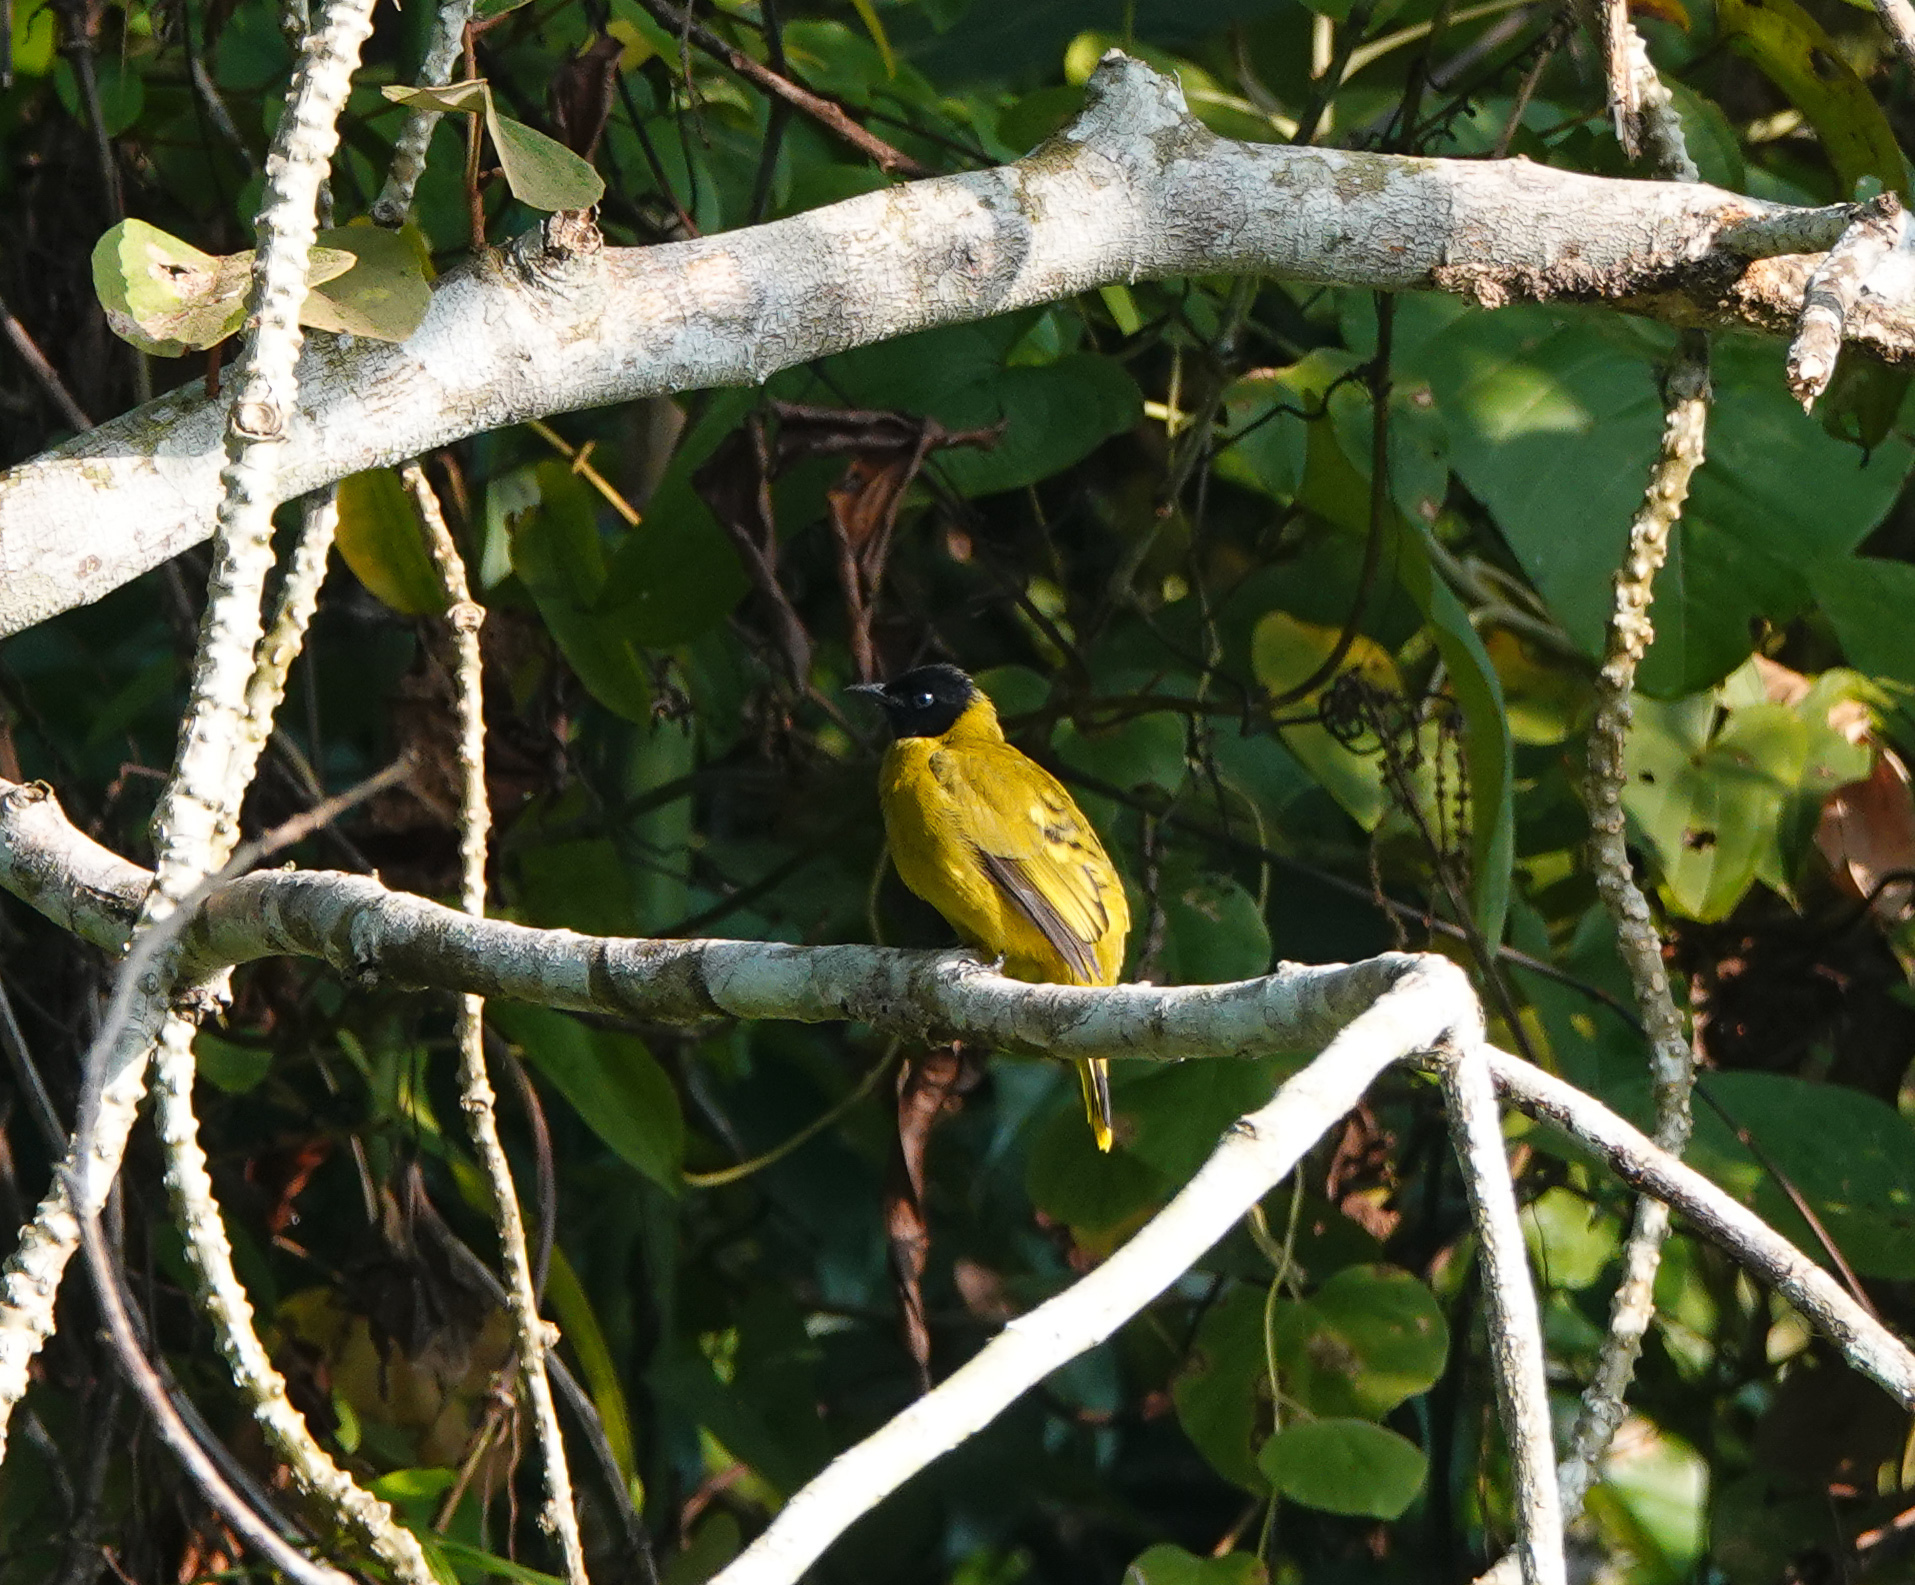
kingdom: Animalia
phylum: Chordata
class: Aves
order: Passeriformes
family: Pycnonotidae
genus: Microtarsus
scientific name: Microtarsus
